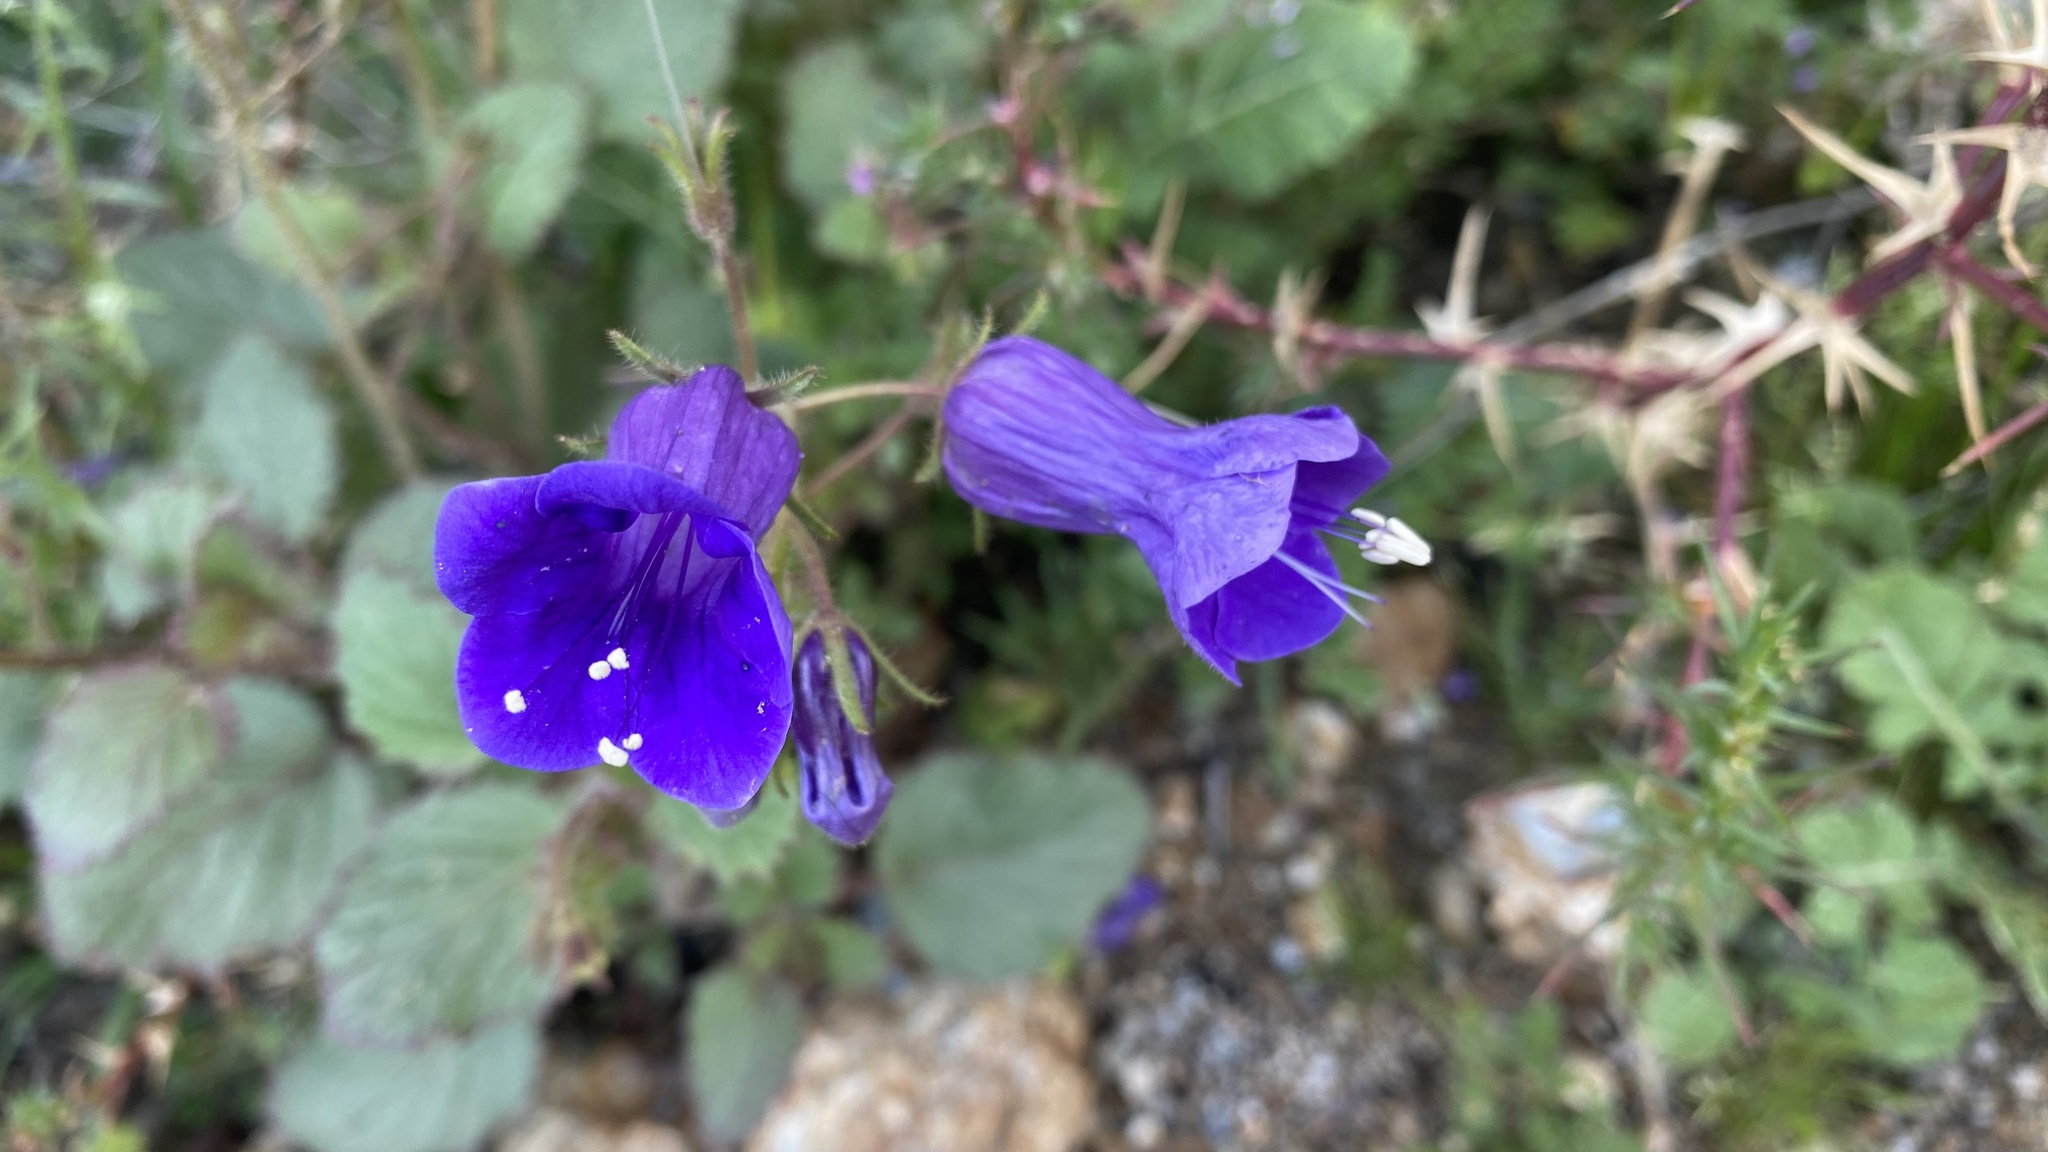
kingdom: Plantae
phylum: Tracheophyta
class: Magnoliopsida
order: Boraginales
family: Hydrophyllaceae
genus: Phacelia
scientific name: Phacelia minor
